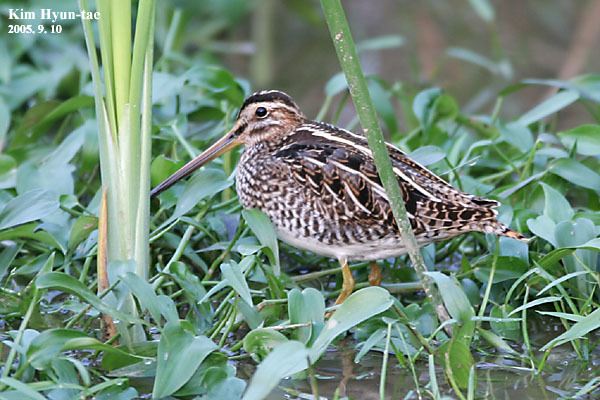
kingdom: Animalia
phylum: Chordata
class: Aves
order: Charadriiformes
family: Scolopacidae
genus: Gallinago
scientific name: Gallinago gallinago
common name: Common snipe
